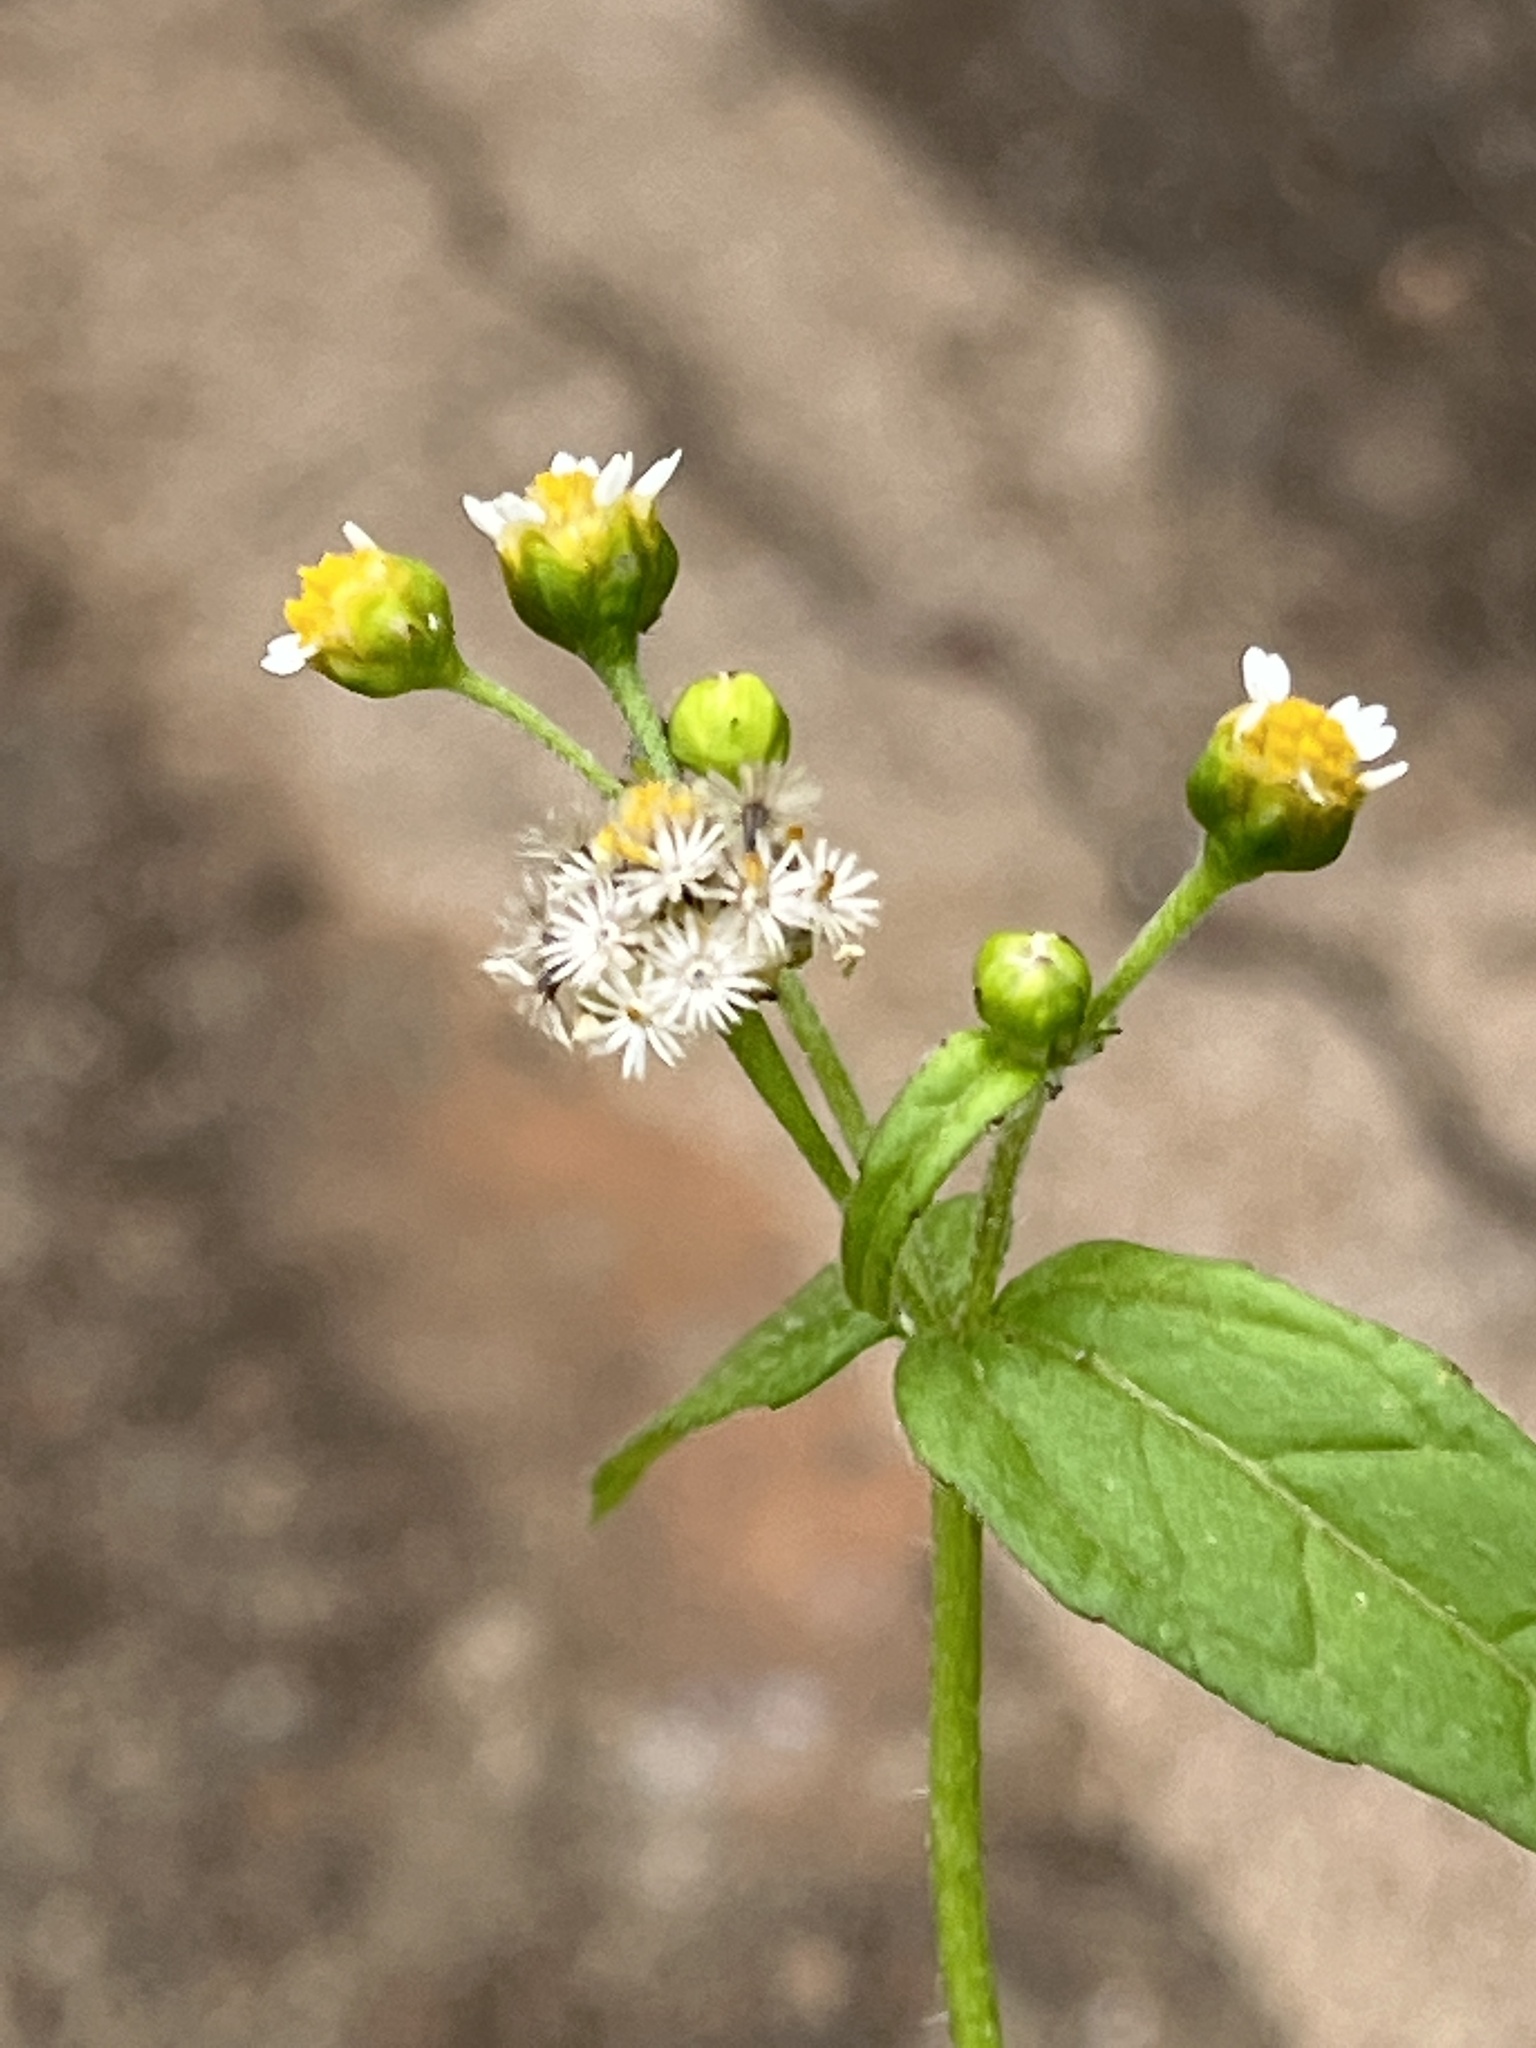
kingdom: Plantae
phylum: Tracheophyta
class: Magnoliopsida
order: Asterales
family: Asteraceae
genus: Galinsoga
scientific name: Galinsoga parviflora
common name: Gallant soldier
